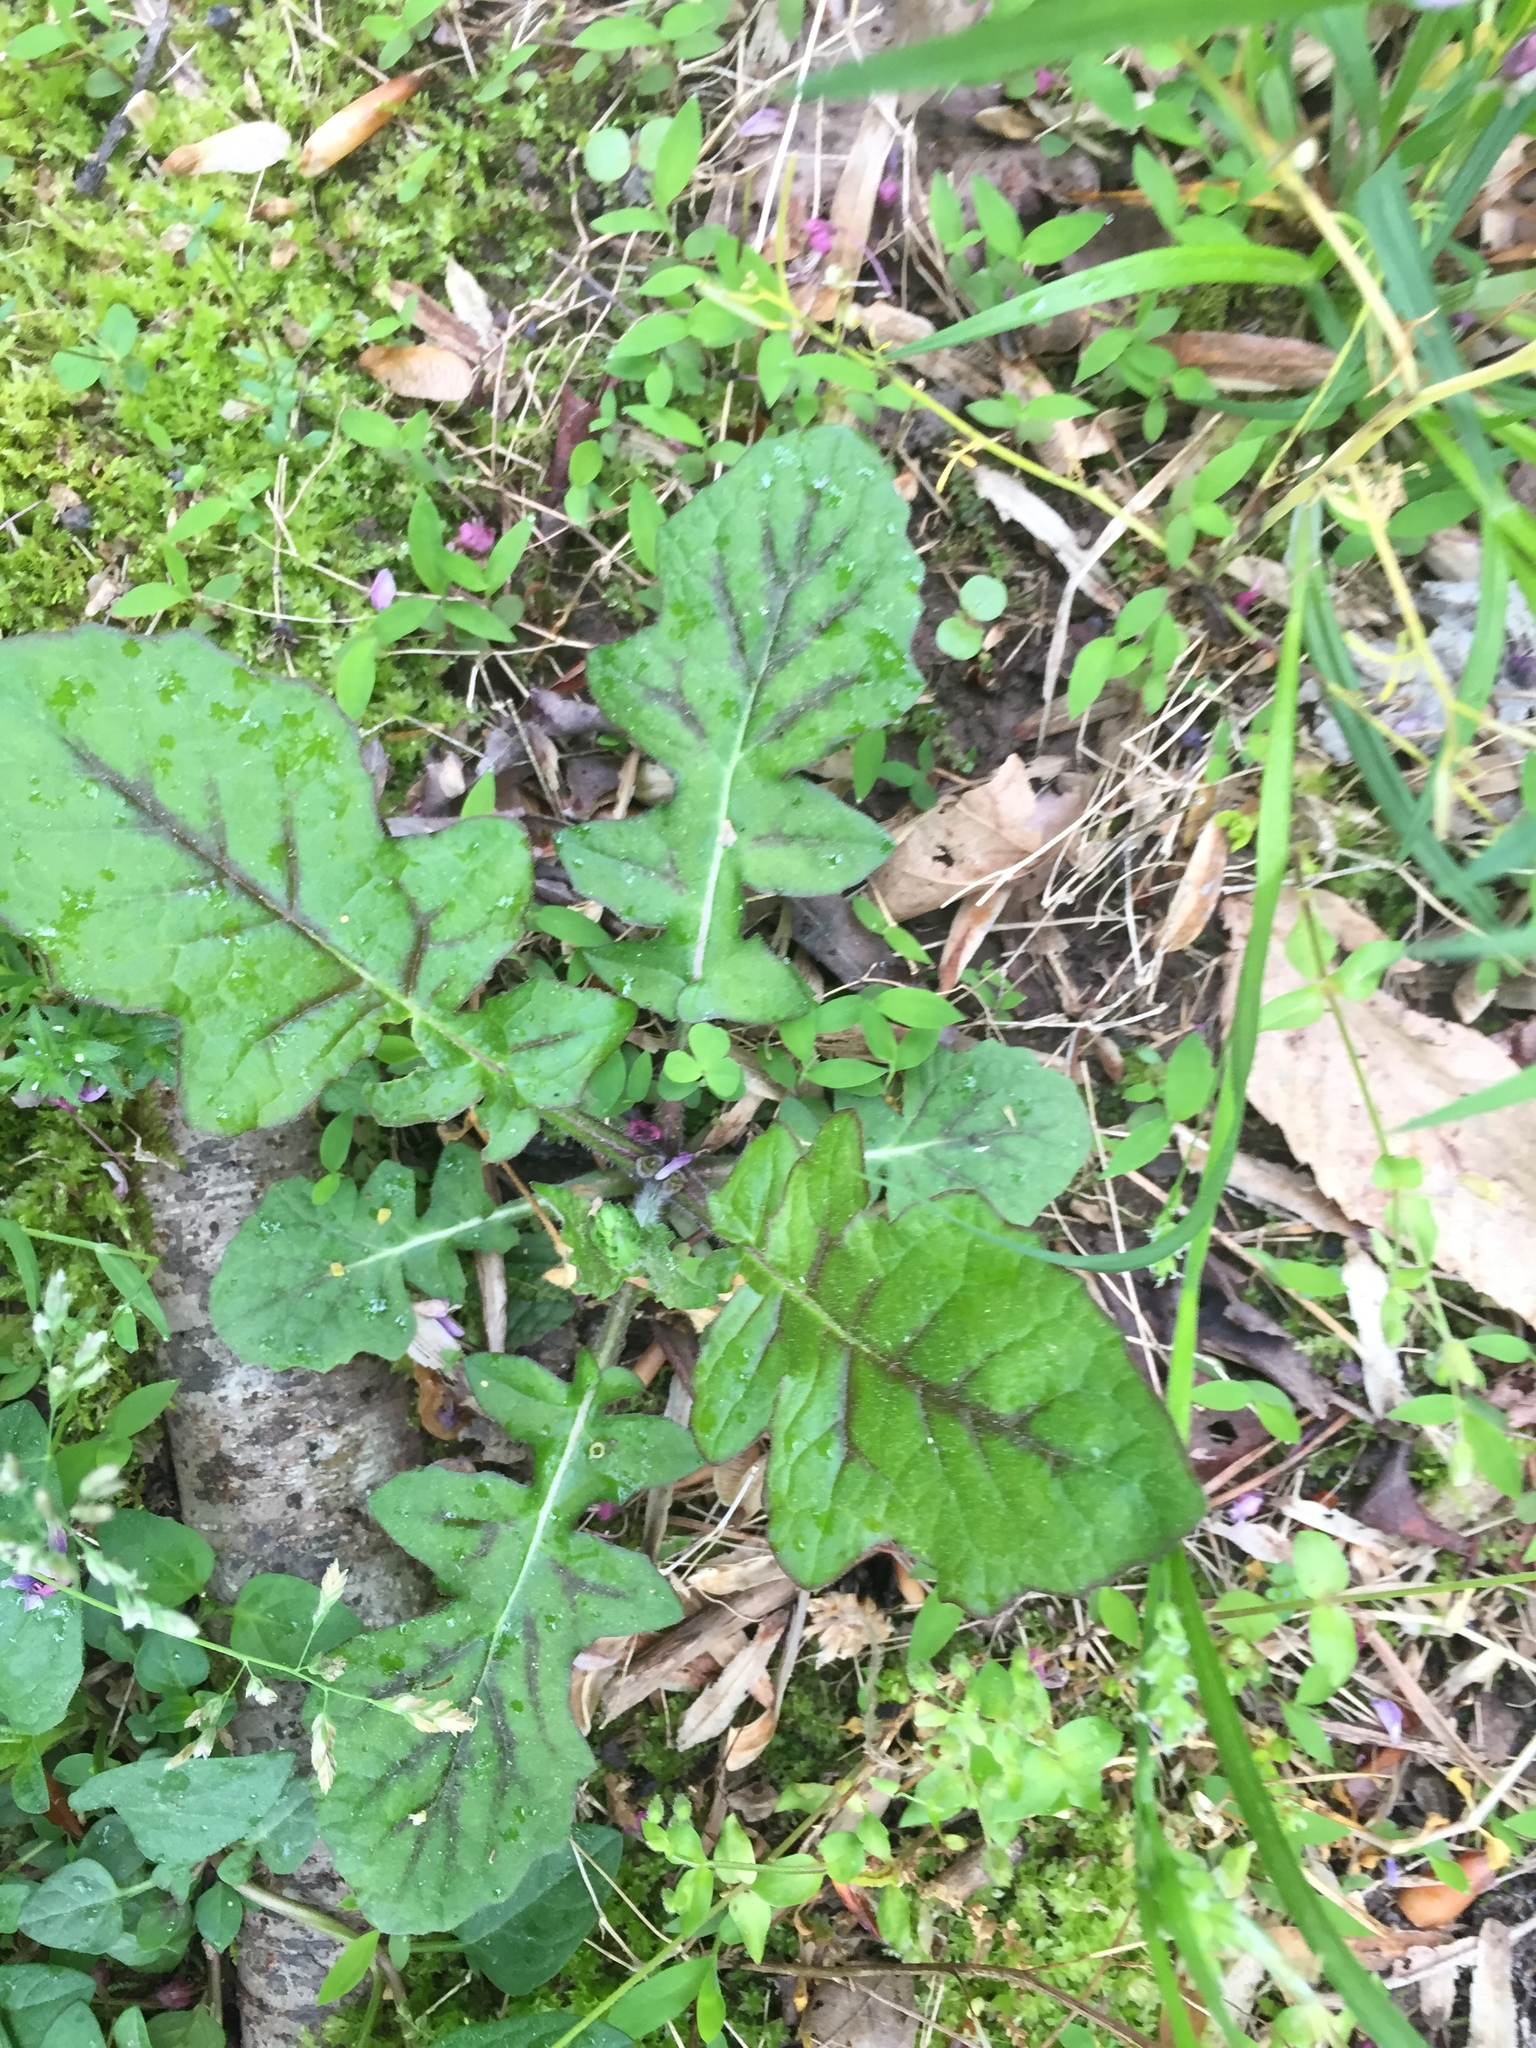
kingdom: Plantae
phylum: Tracheophyta
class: Magnoliopsida
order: Lamiales
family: Lamiaceae
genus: Salvia
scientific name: Salvia lyrata
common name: Cancerweed
